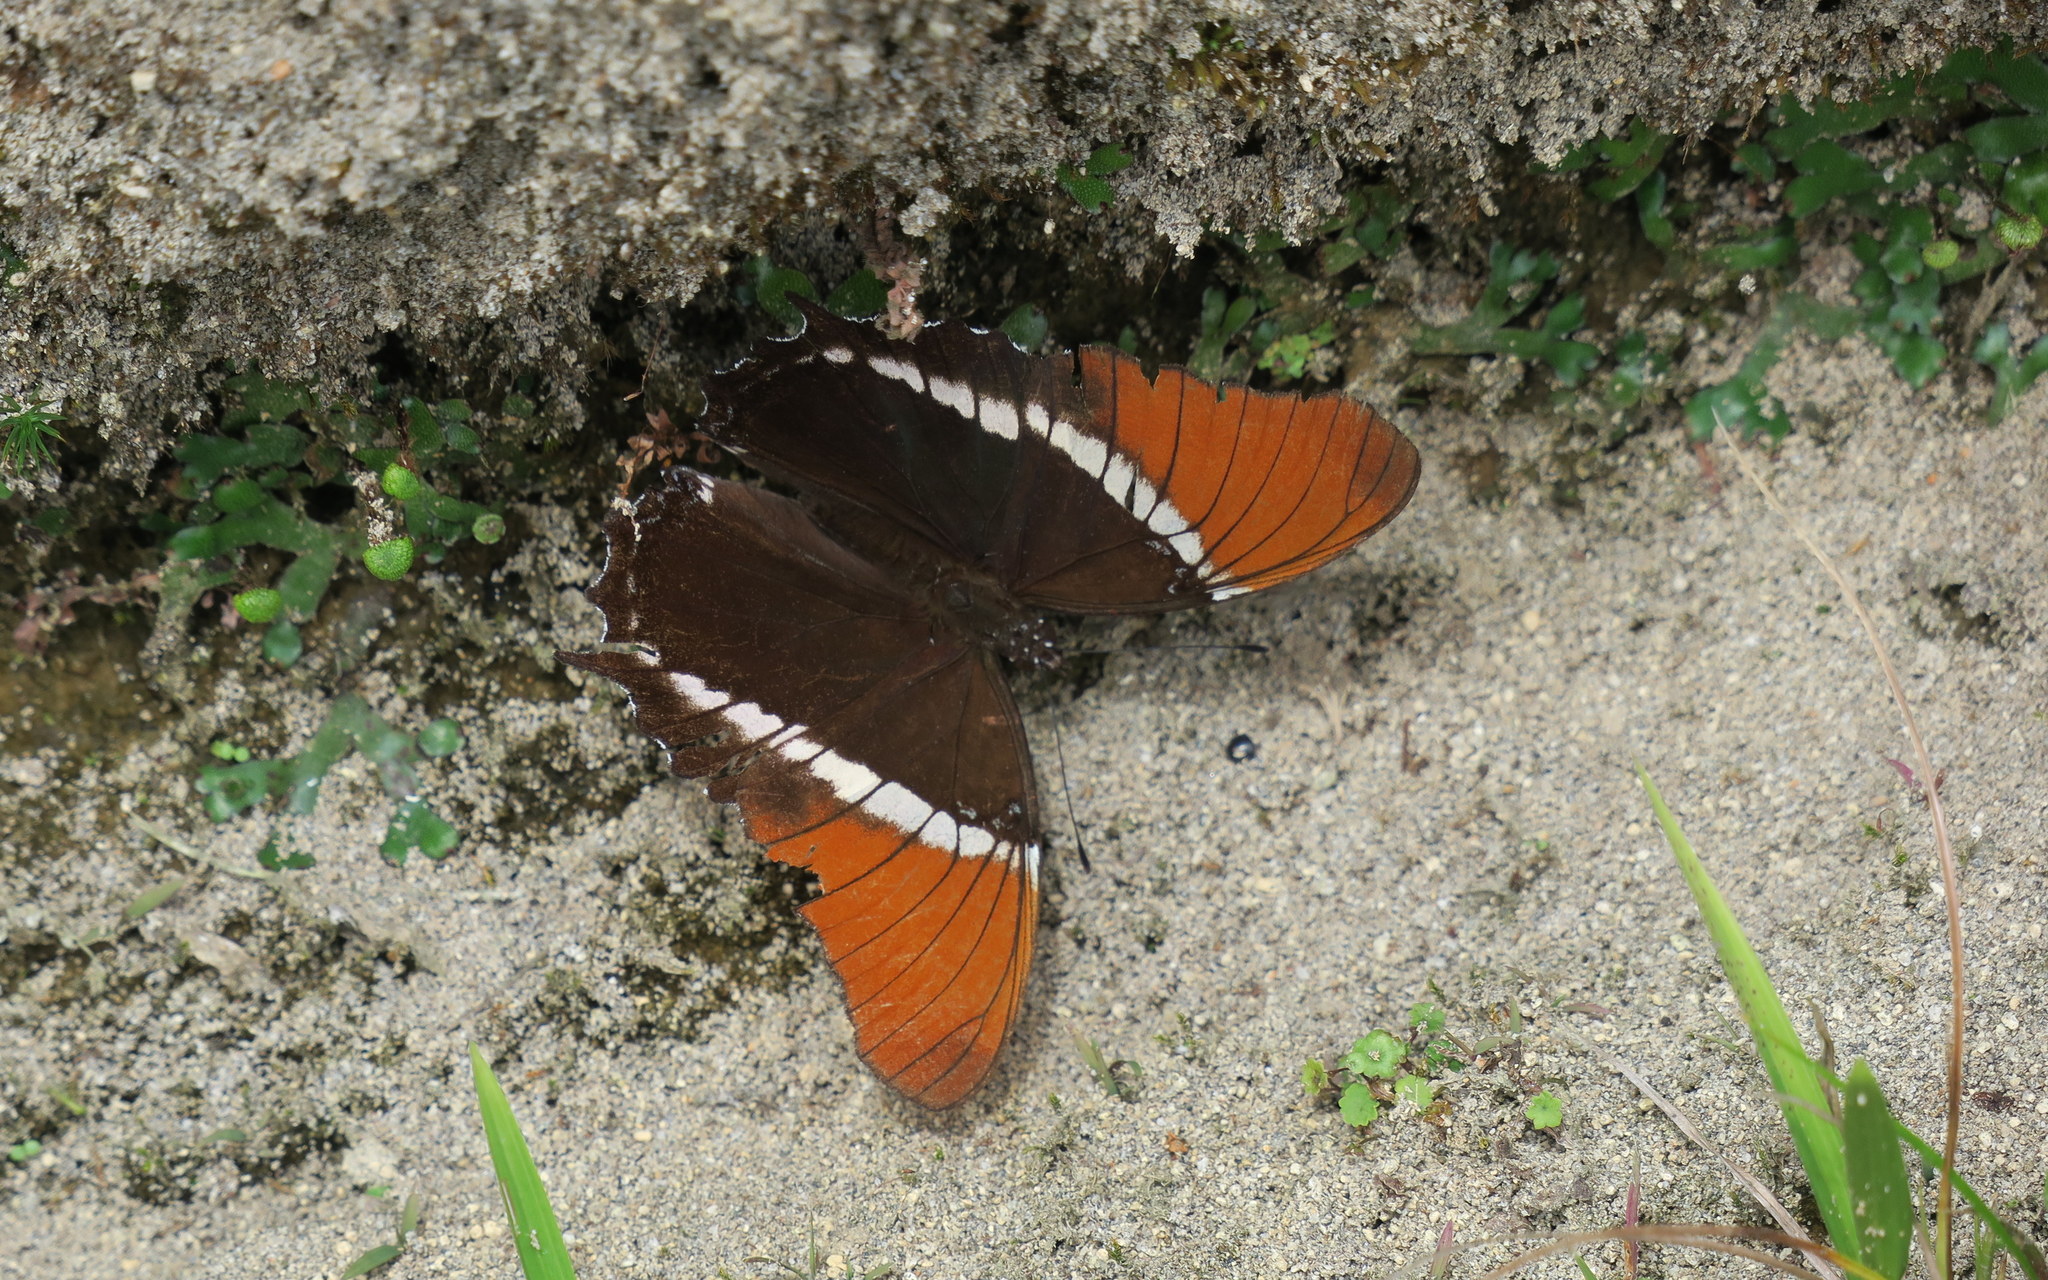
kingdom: Animalia
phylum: Arthropoda
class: Insecta
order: Lepidoptera
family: Nymphalidae
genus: Siproeta
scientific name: Siproeta epaphus
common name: Rusty-tipped page
